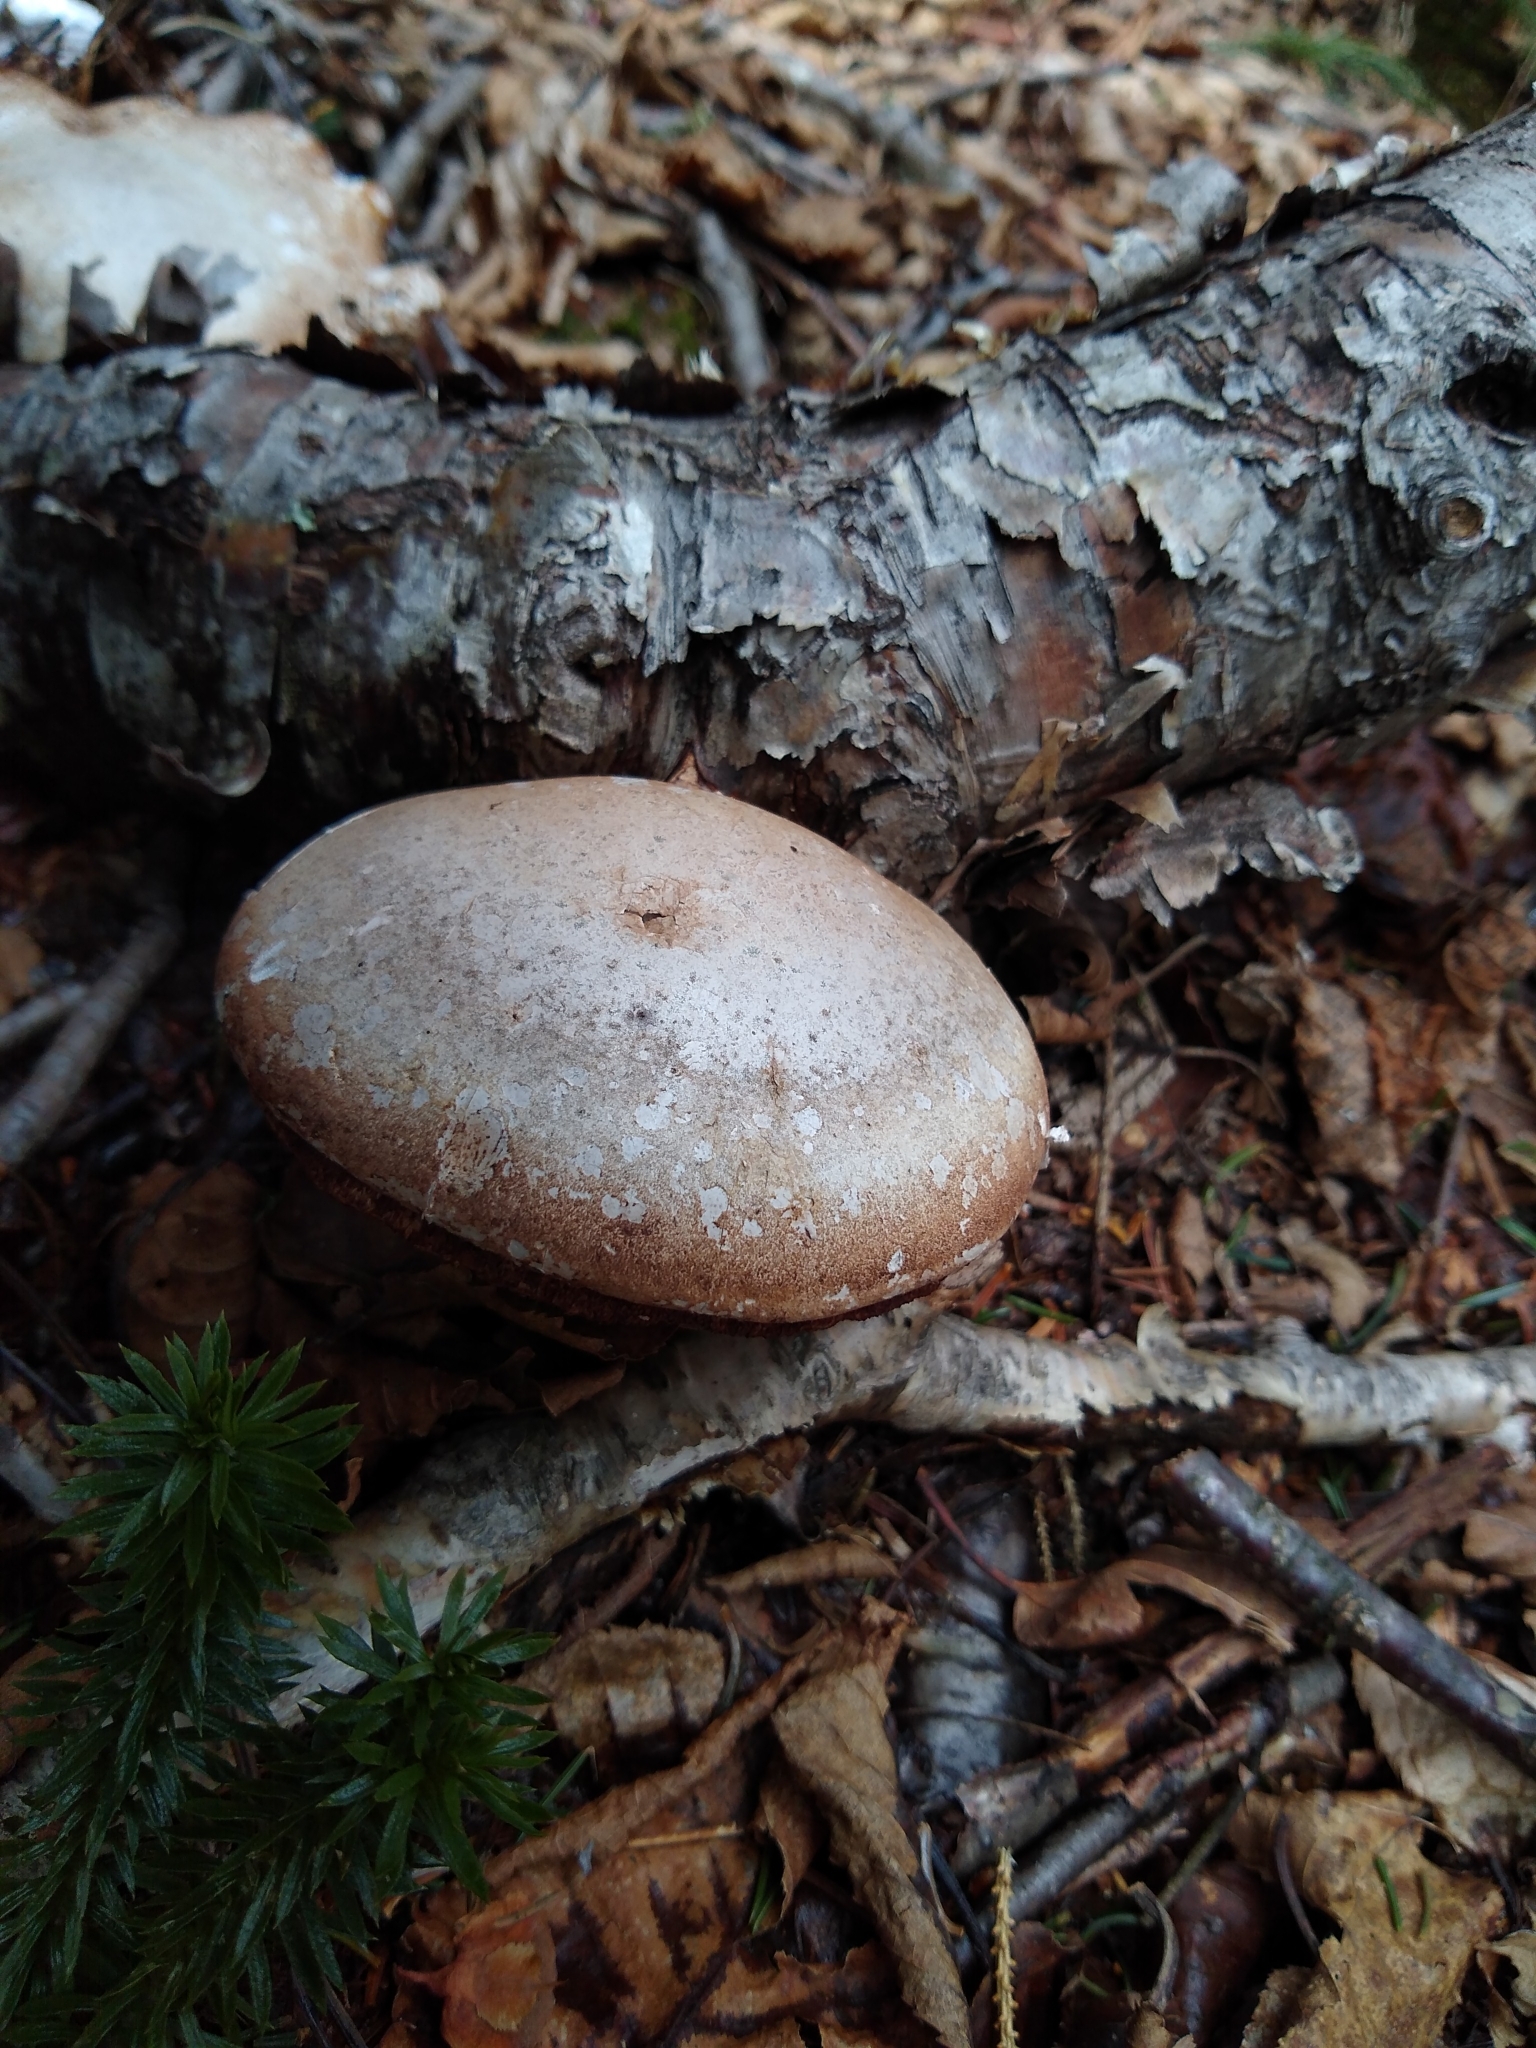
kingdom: Fungi
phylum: Basidiomycota
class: Agaricomycetes
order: Polyporales
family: Fomitopsidaceae
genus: Fomitopsis
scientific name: Fomitopsis betulina
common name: Birch polypore
